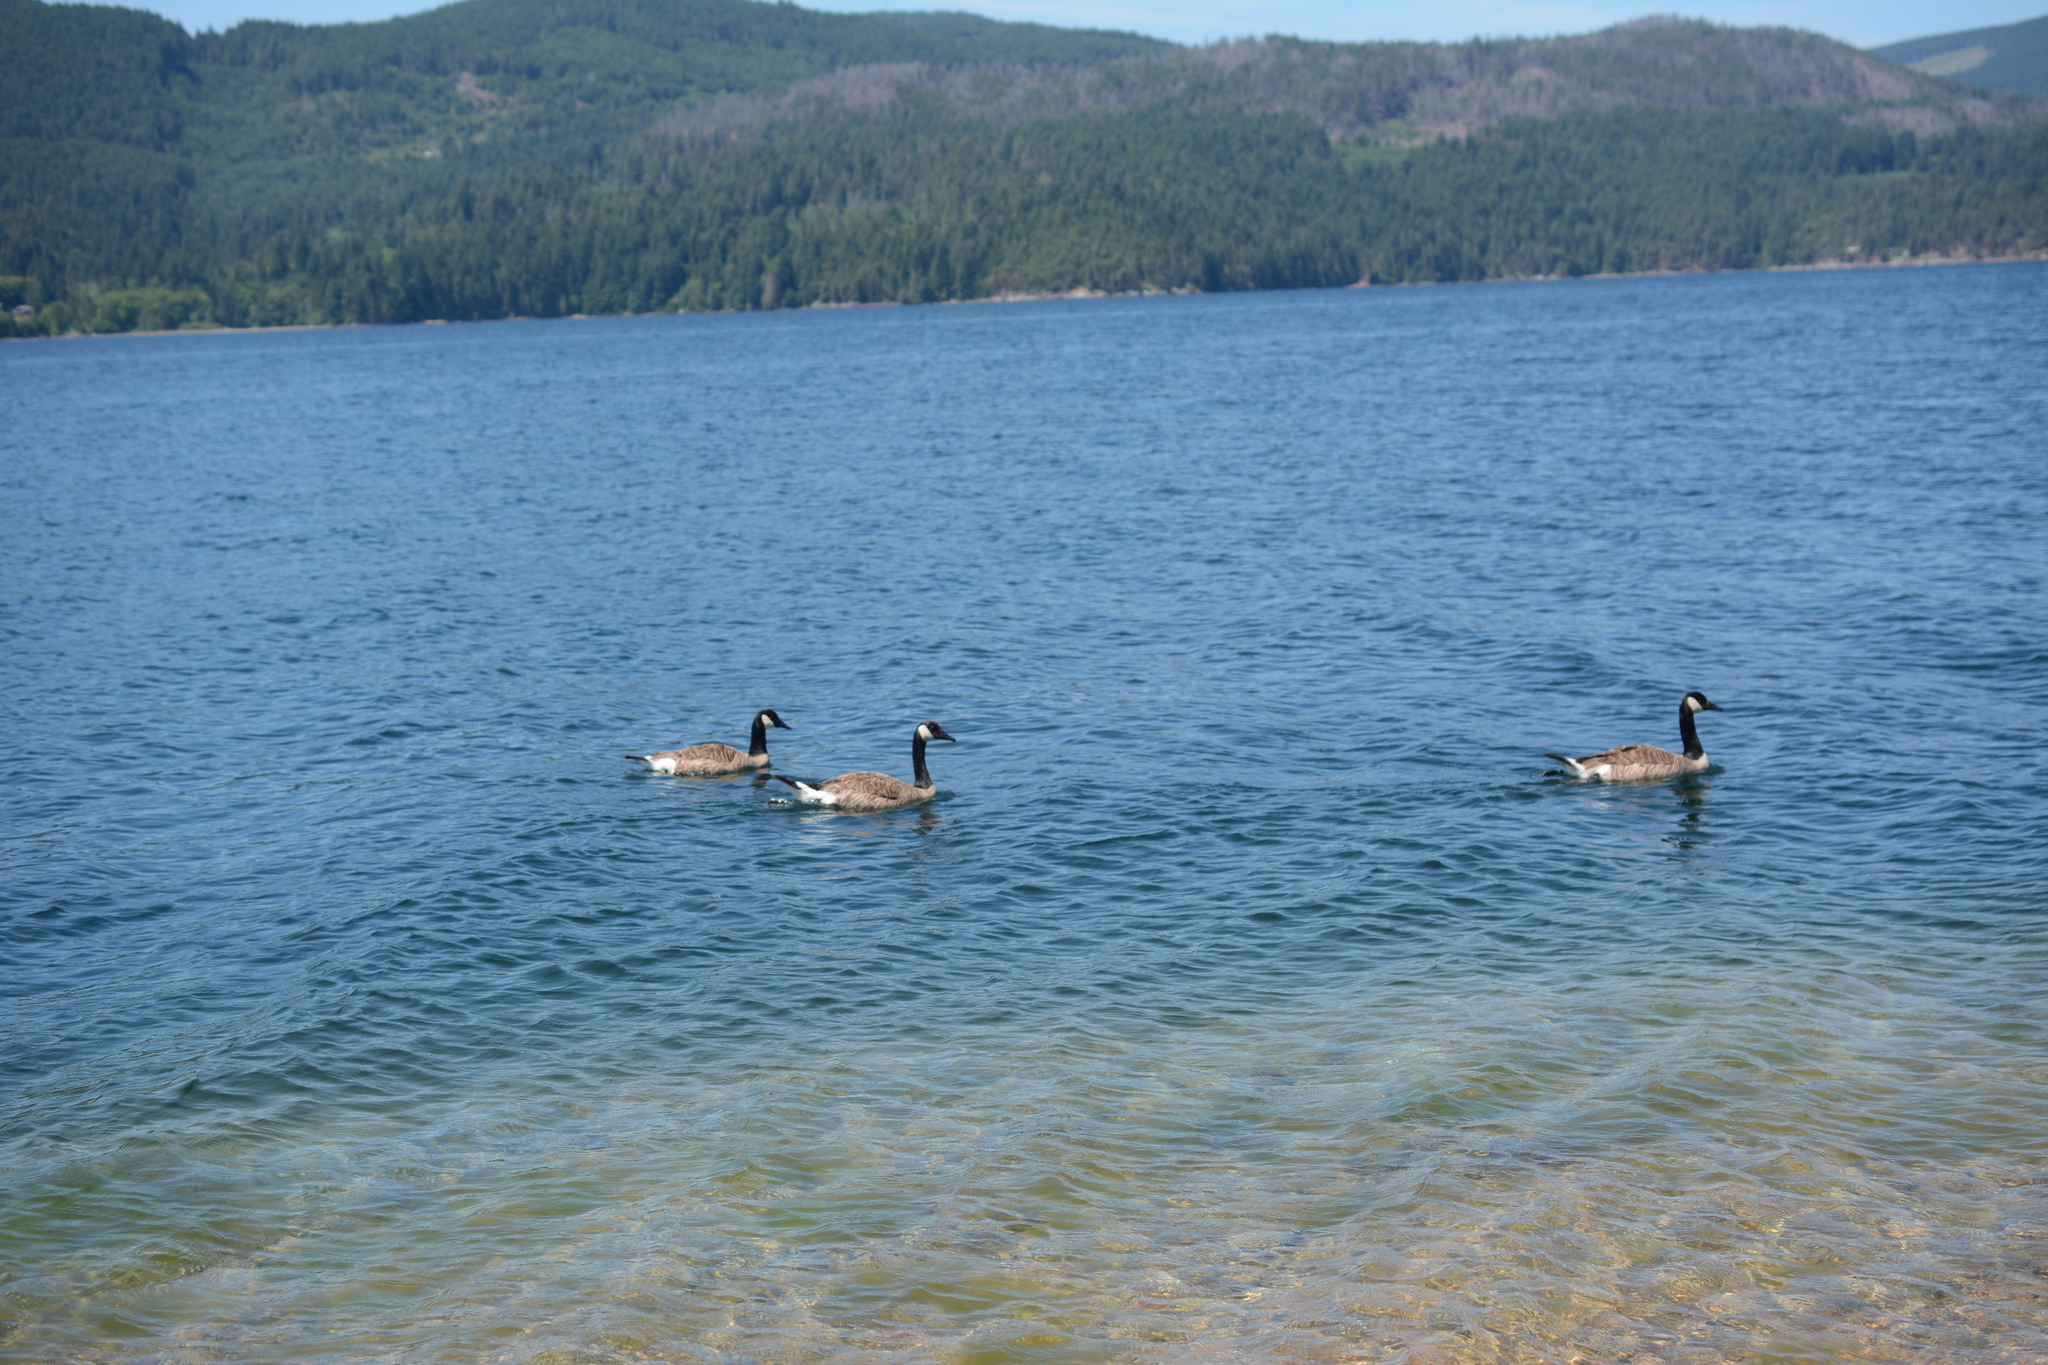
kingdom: Animalia
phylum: Chordata
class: Aves
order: Anseriformes
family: Anatidae
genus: Branta
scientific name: Branta canadensis
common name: Canada goose
